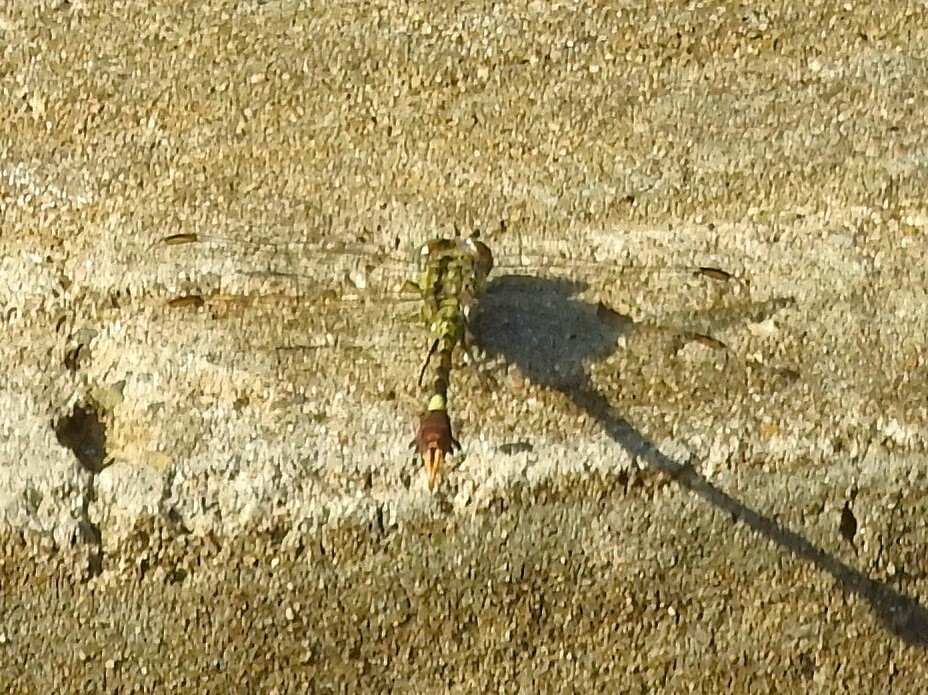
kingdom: Animalia
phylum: Arthropoda
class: Insecta
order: Odonata
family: Gomphidae
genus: Paragomphus
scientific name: Paragomphus genei
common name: Common hooktail
